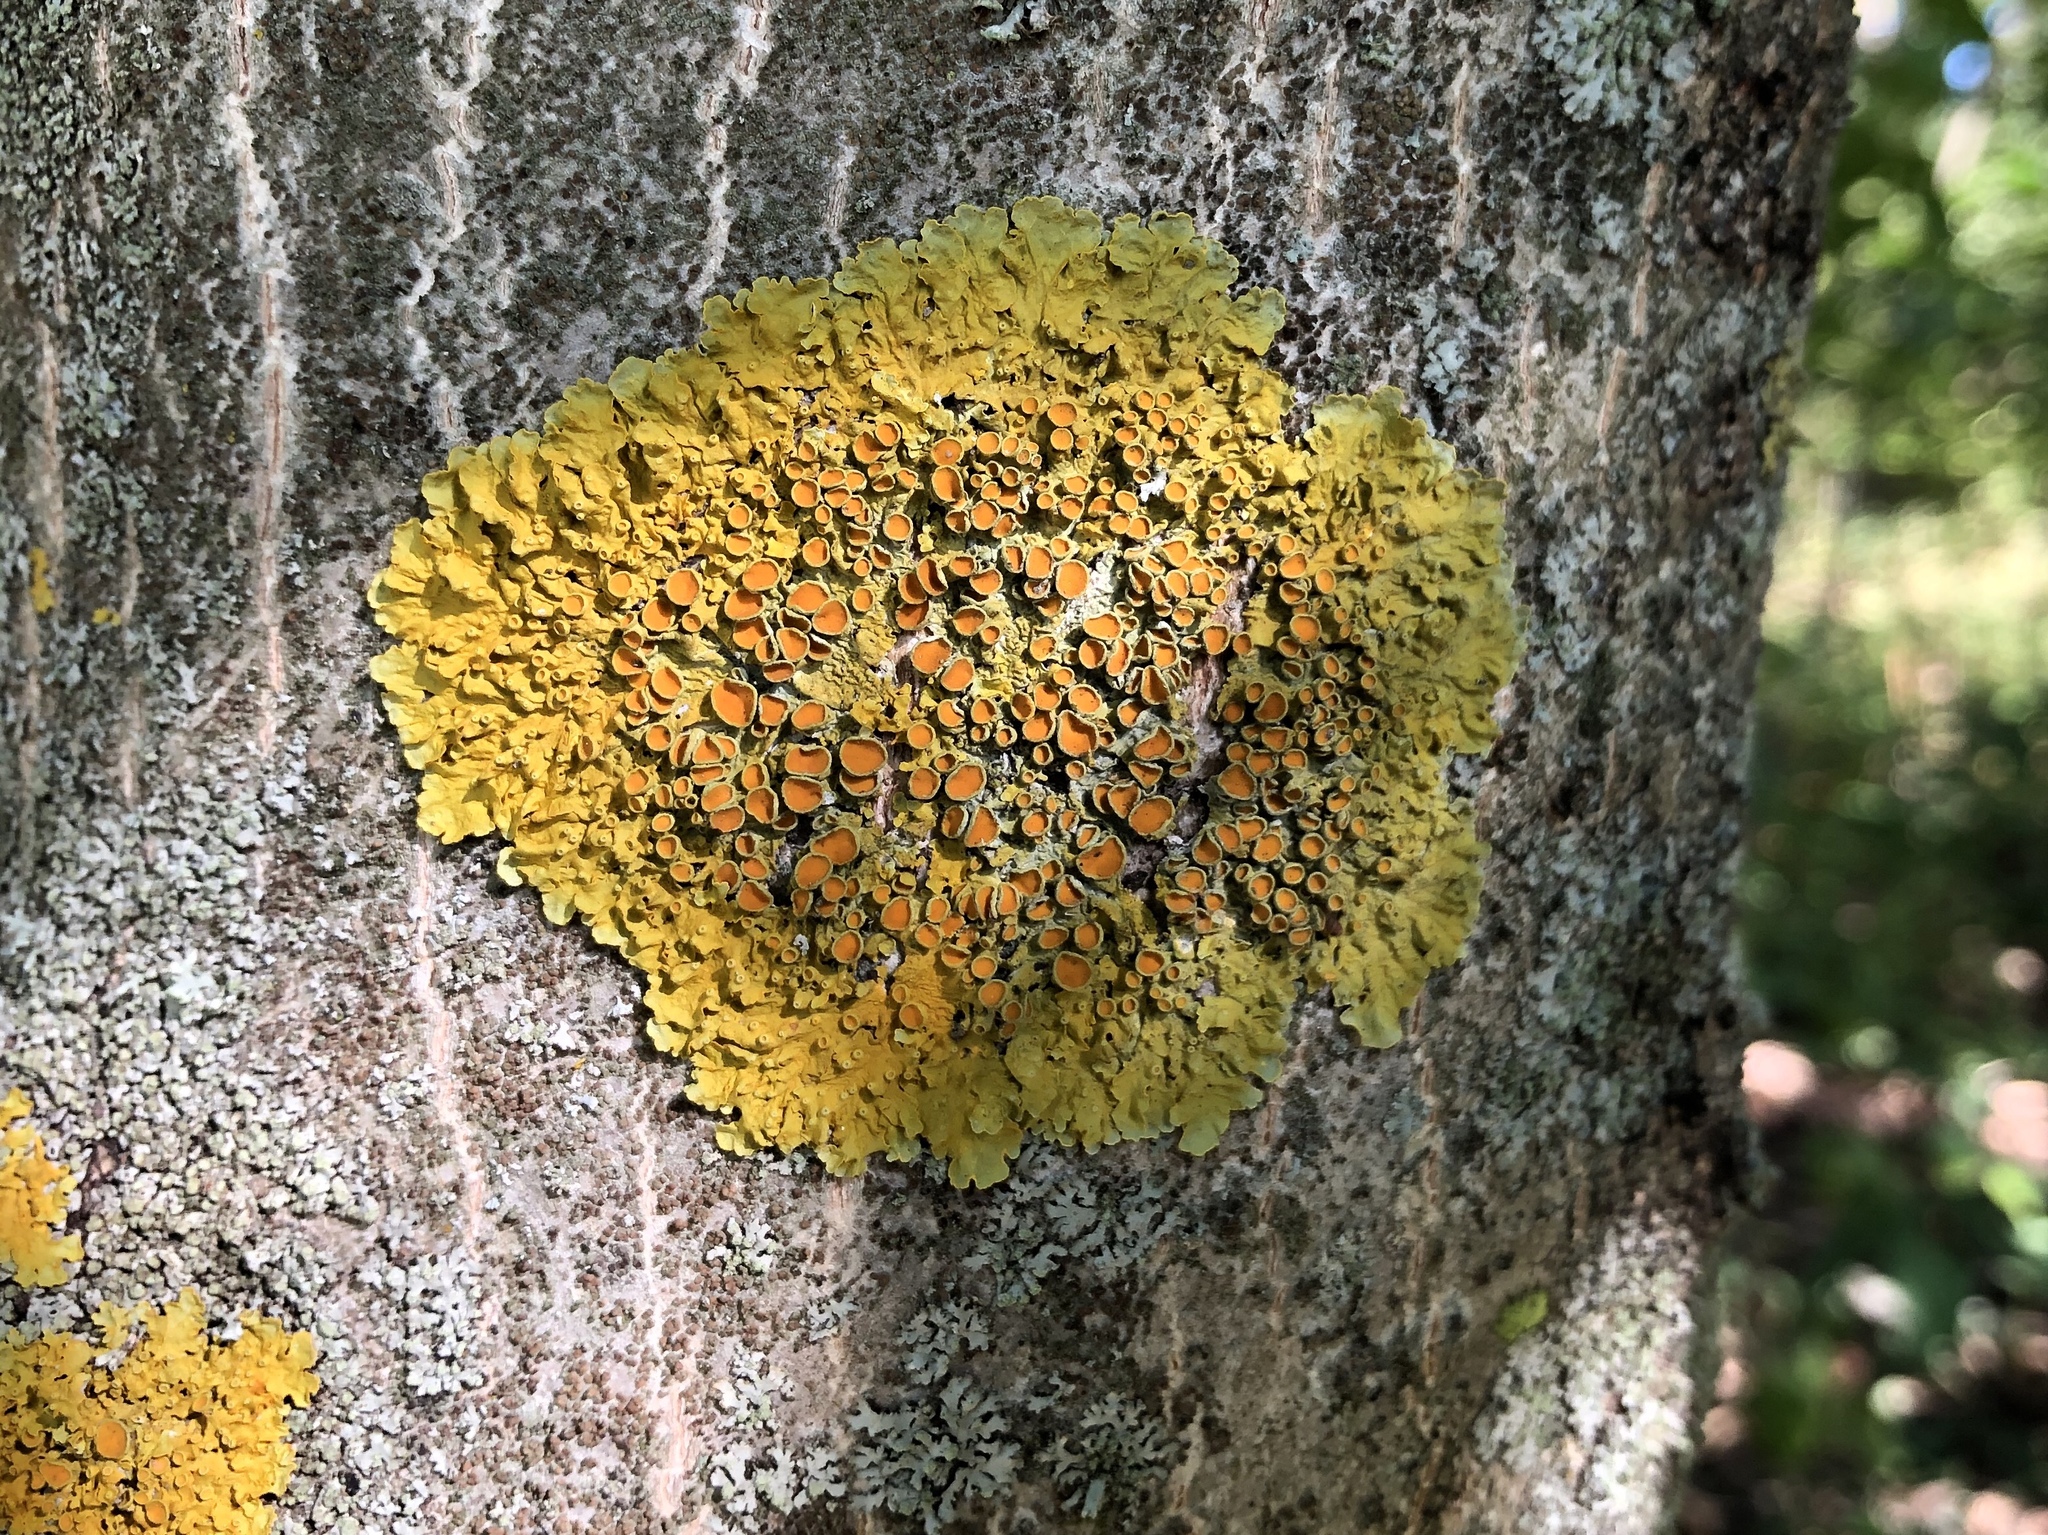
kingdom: Fungi
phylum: Ascomycota
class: Lecanoromycetes
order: Teloschistales
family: Teloschistaceae
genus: Xanthoria
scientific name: Xanthoria parietina
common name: Common orange lichen
